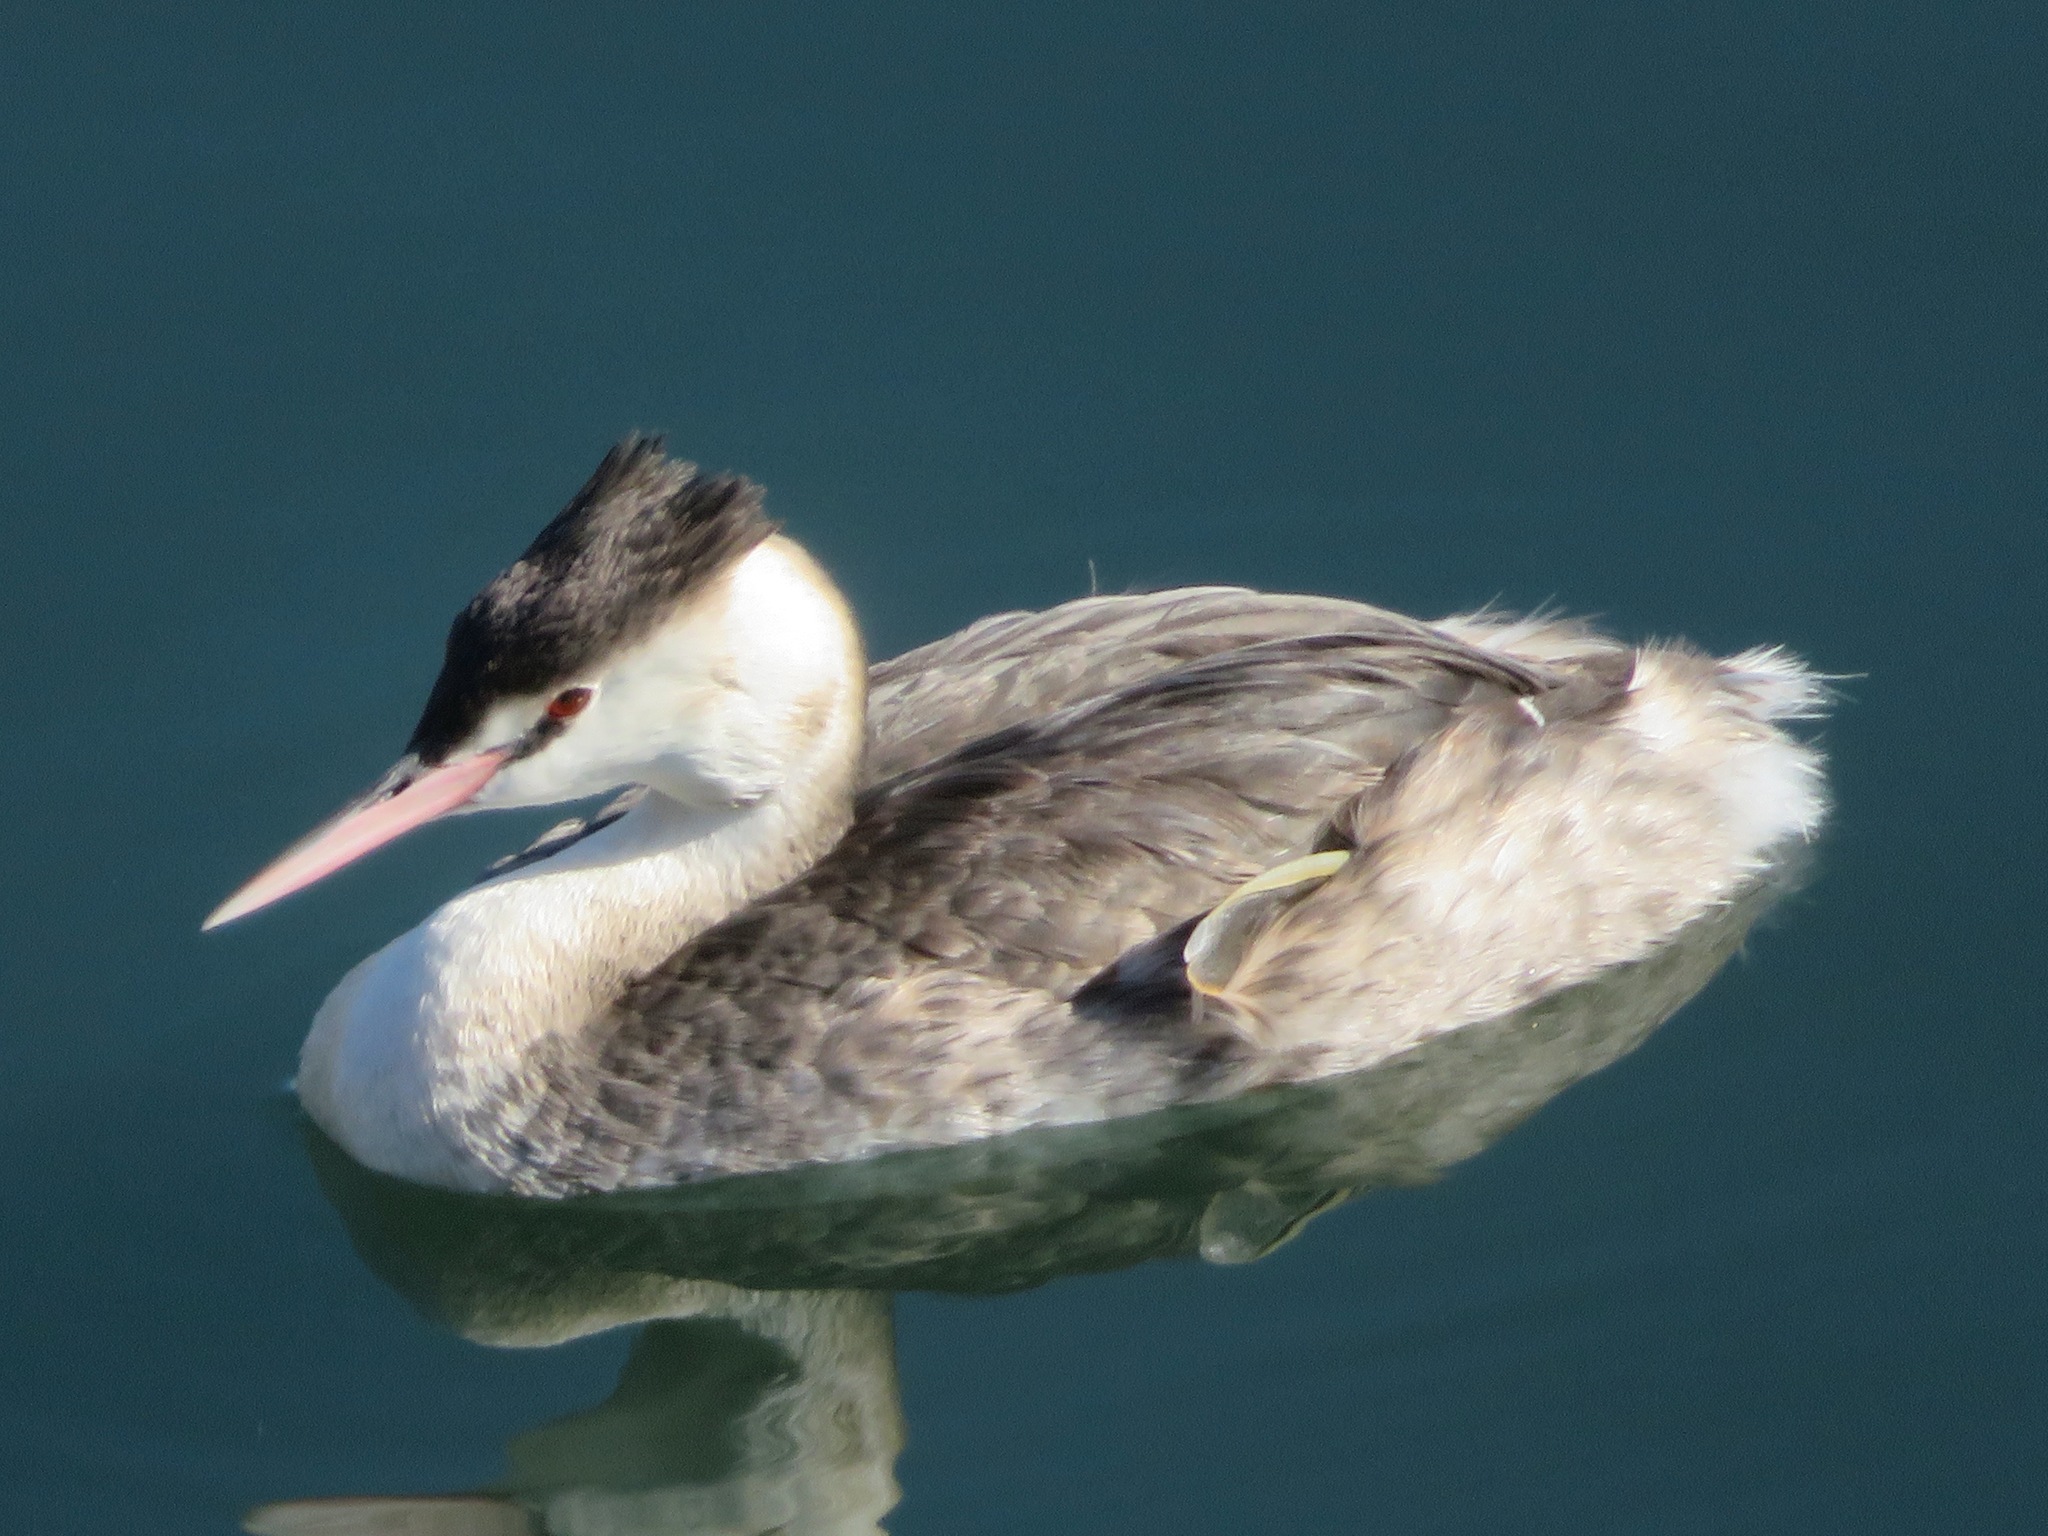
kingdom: Animalia
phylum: Chordata
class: Aves
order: Podicipediformes
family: Podicipedidae
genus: Podiceps
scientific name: Podiceps cristatus
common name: Great crested grebe
